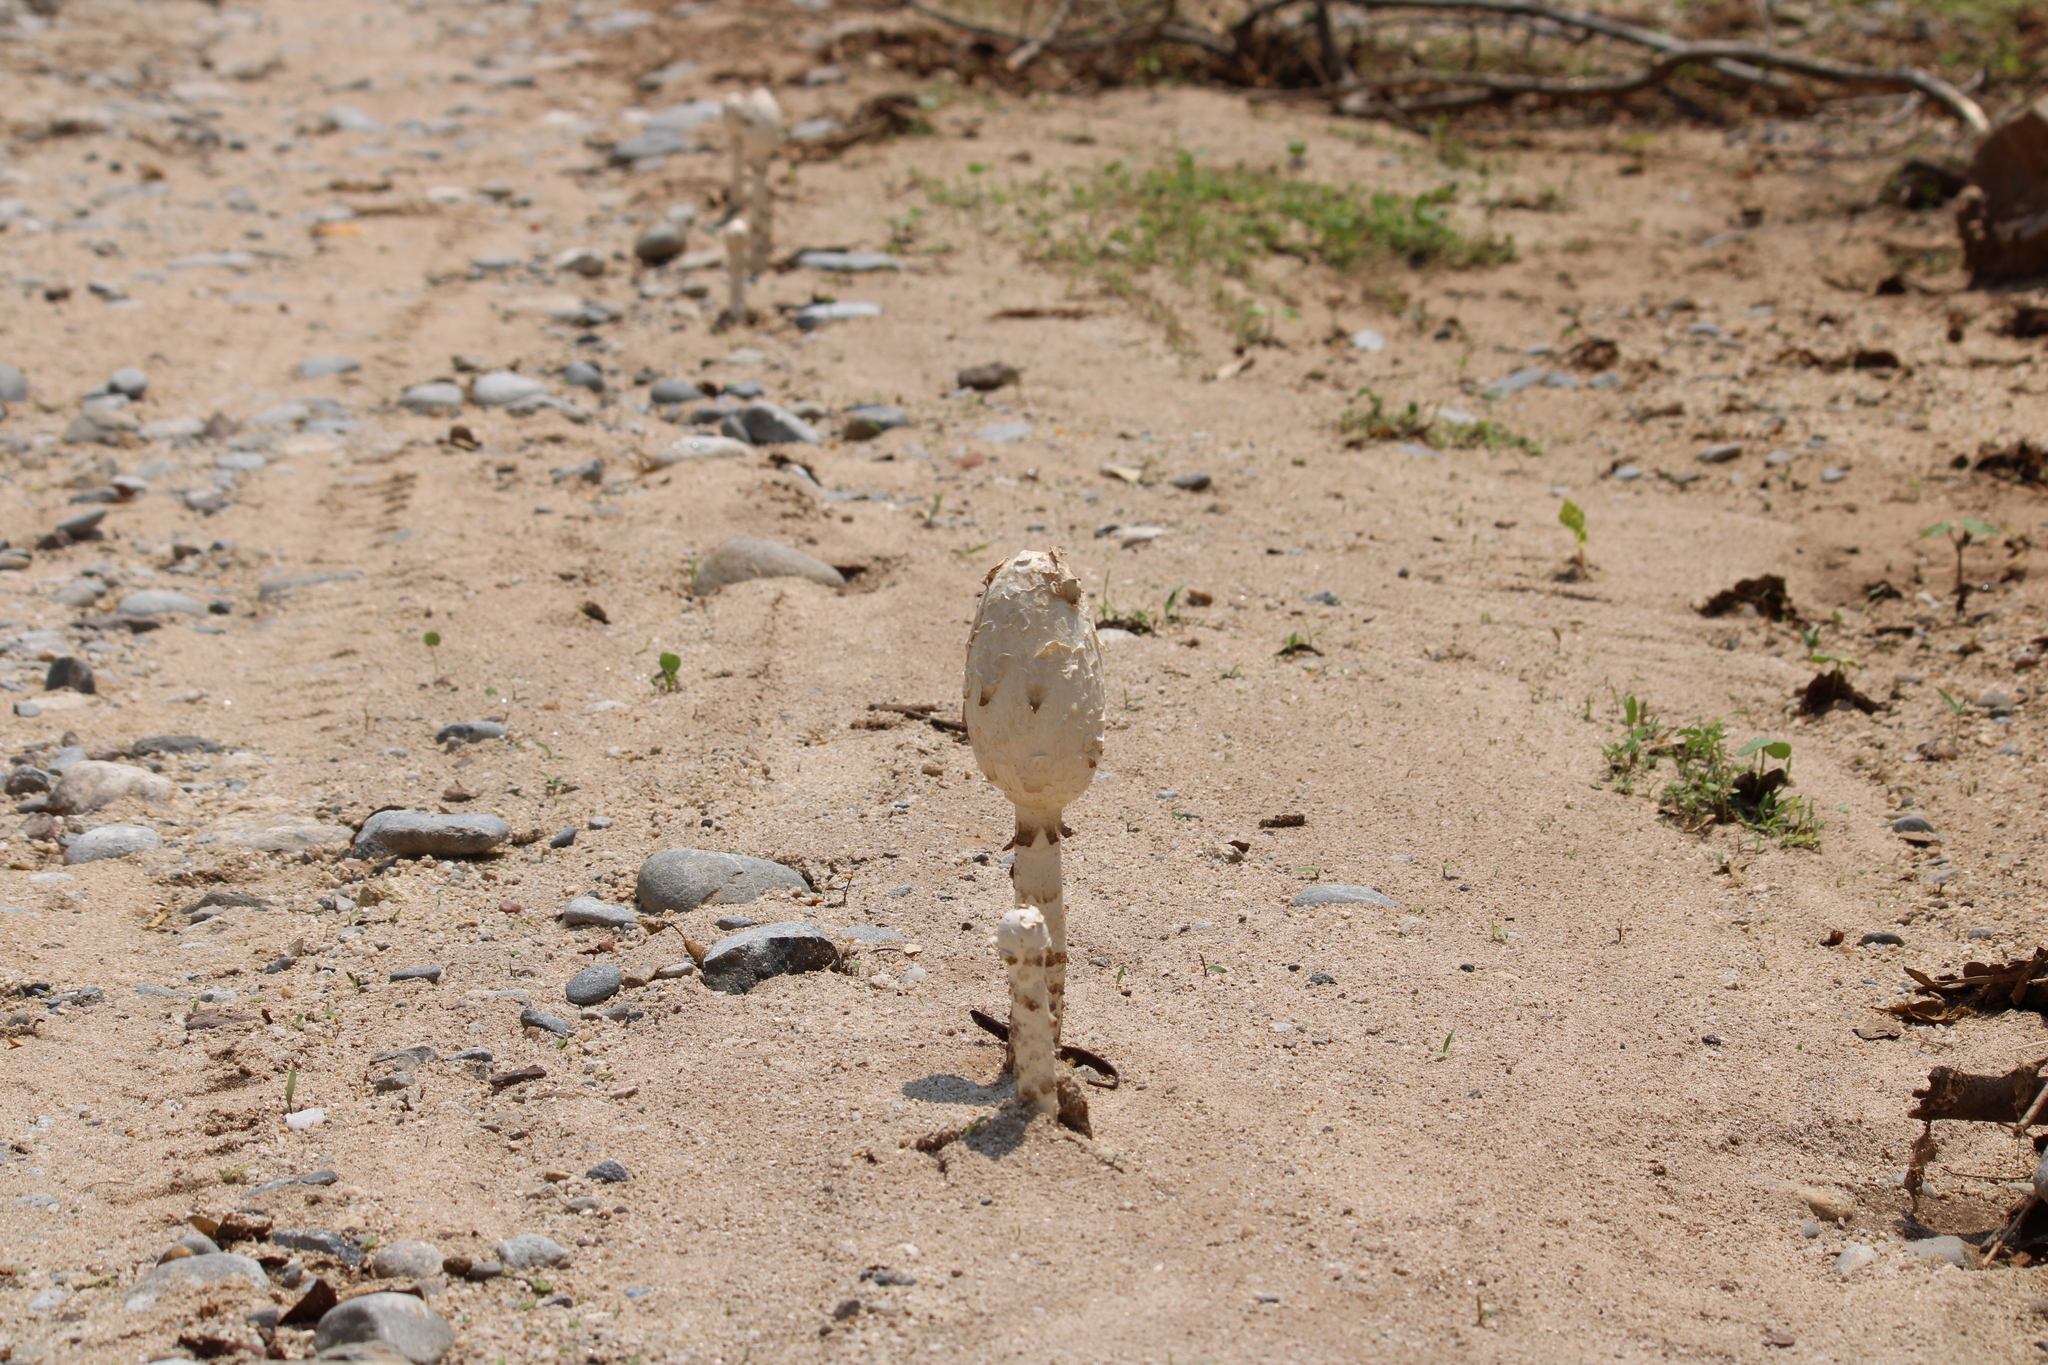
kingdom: Fungi
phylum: Basidiomycota
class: Agaricomycetes
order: Agaricales
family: Agaricaceae
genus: Podaxis
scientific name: Podaxis pistillaris
